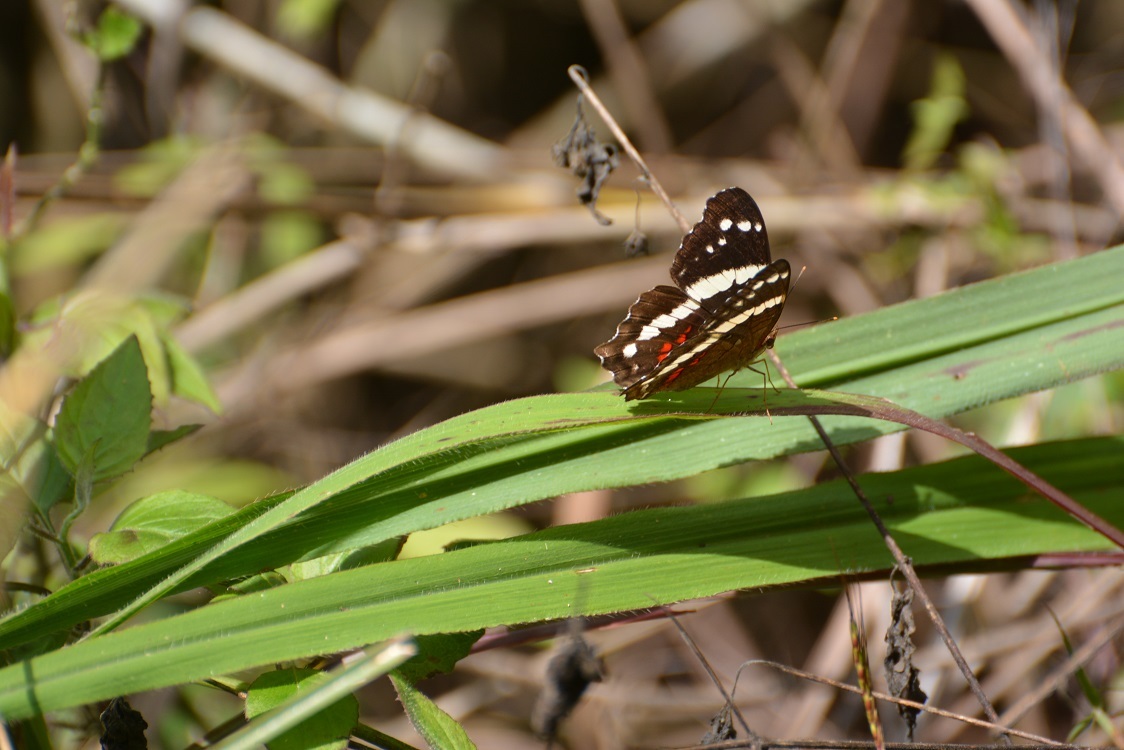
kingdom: Animalia
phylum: Arthropoda
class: Insecta
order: Lepidoptera
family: Nymphalidae
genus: Anartia
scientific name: Anartia fatima
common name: Banded peacock
